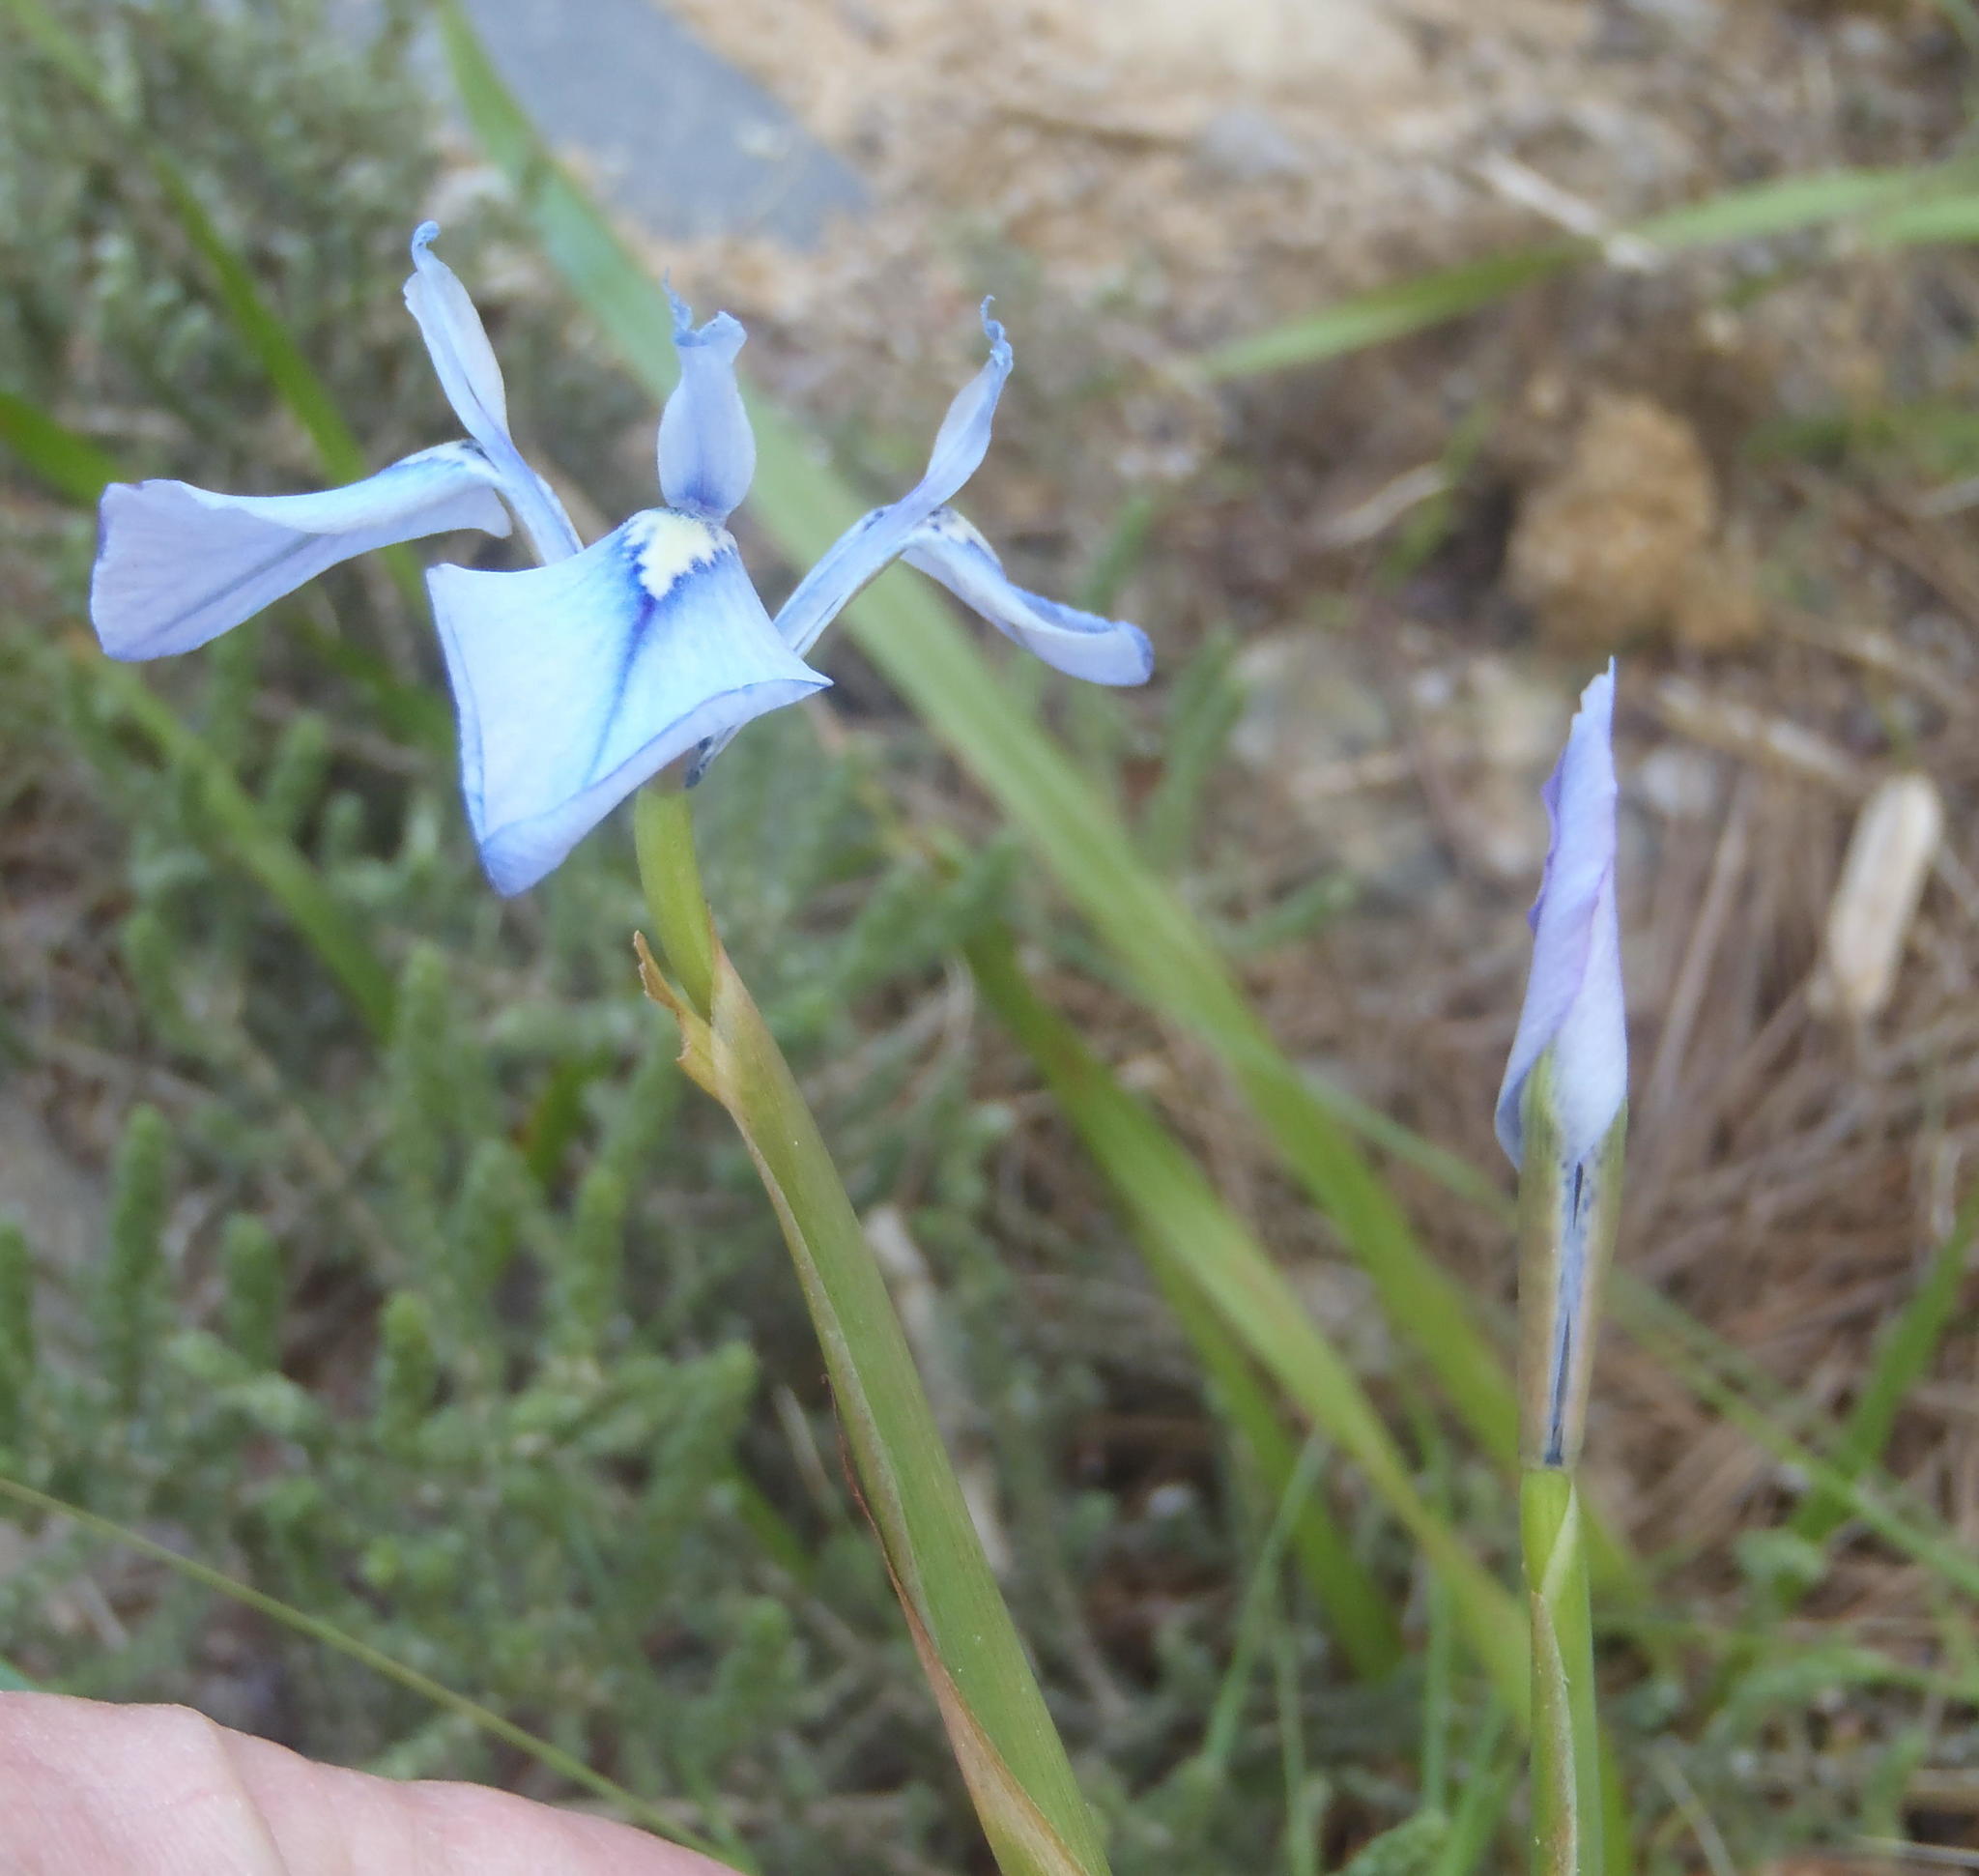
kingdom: Plantae
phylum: Tracheophyta
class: Liliopsida
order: Asparagales
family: Iridaceae
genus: Moraea
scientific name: Moraea tripetala
